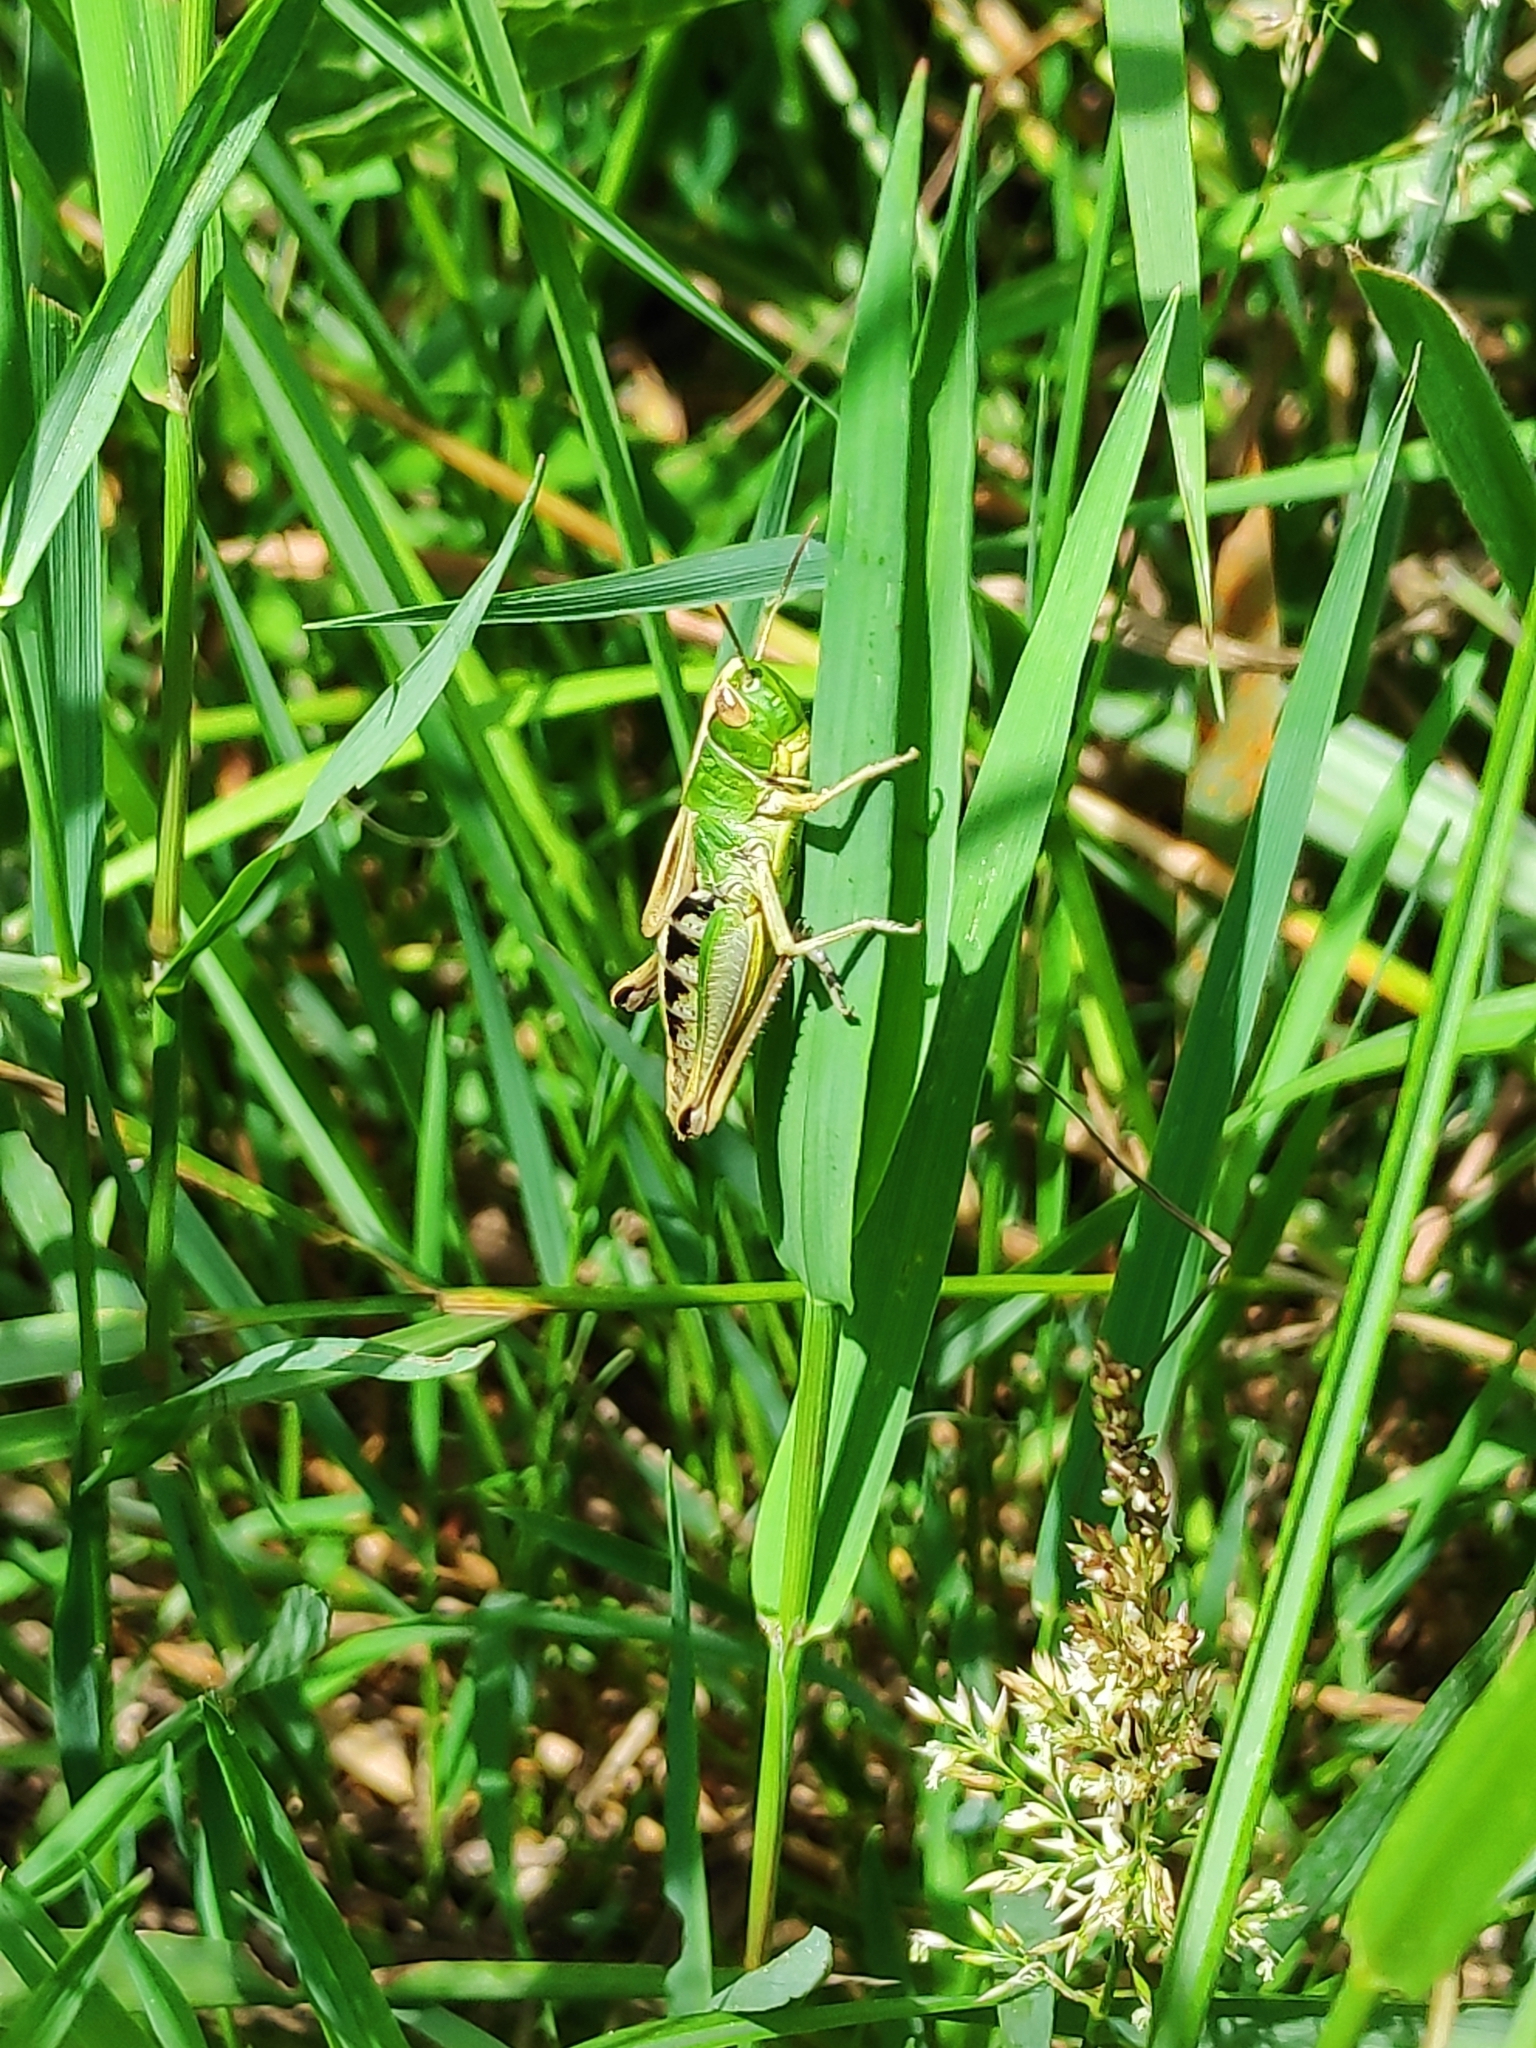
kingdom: Animalia
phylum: Arthropoda
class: Insecta
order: Orthoptera
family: Acrididae
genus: Pseudochorthippus
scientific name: Pseudochorthippus parallelus
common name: Meadow grasshopper
